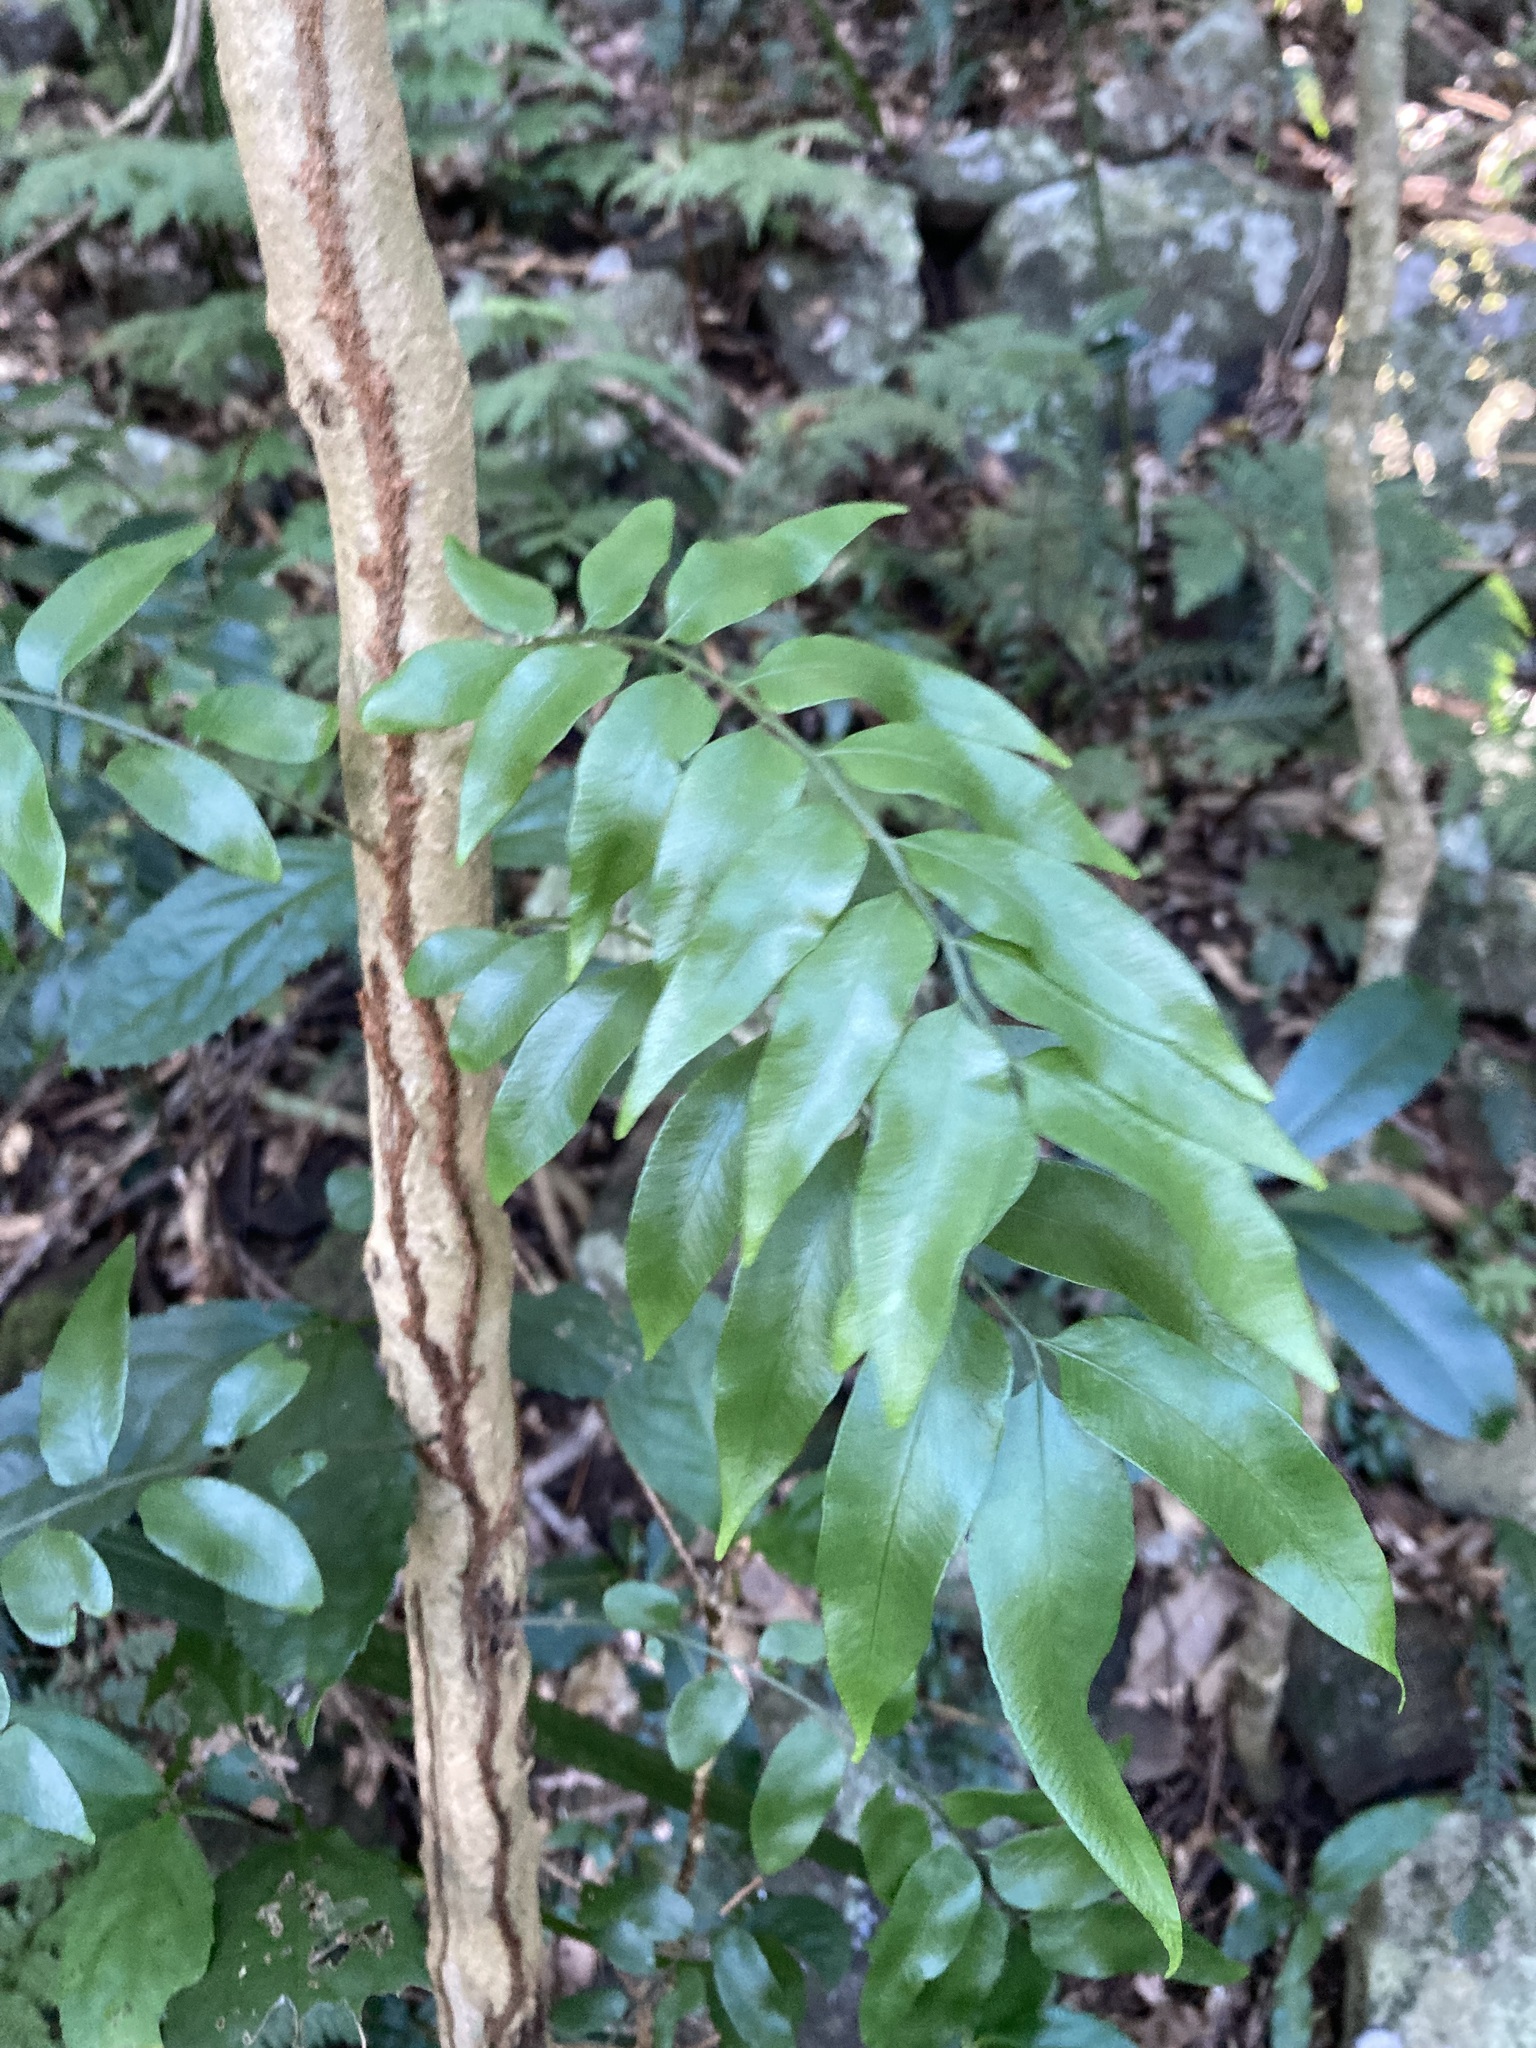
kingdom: Plantae
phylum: Tracheophyta
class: Polypodiopsida
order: Polypodiales
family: Tectariaceae
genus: Arthropteris
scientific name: Arthropteris tenella
